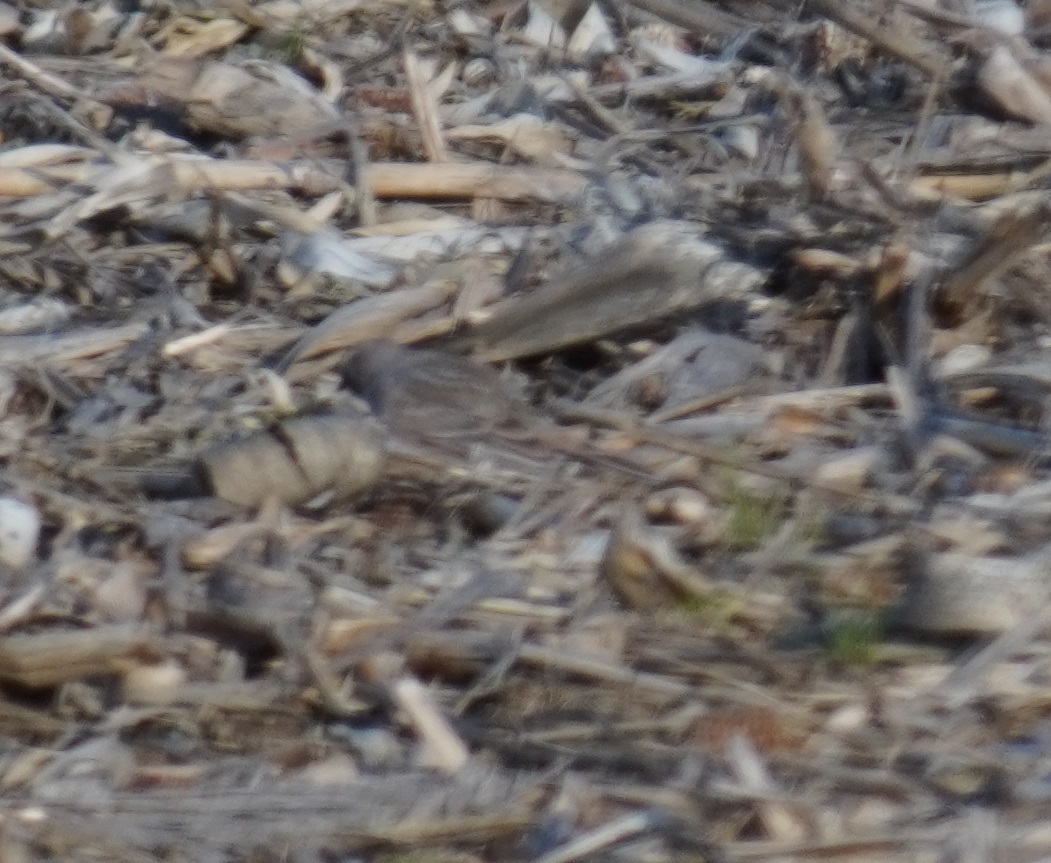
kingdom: Animalia
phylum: Chordata
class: Aves
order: Passeriformes
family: Alaudidae
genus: Eremophila
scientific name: Eremophila alpestris
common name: Horned lark
